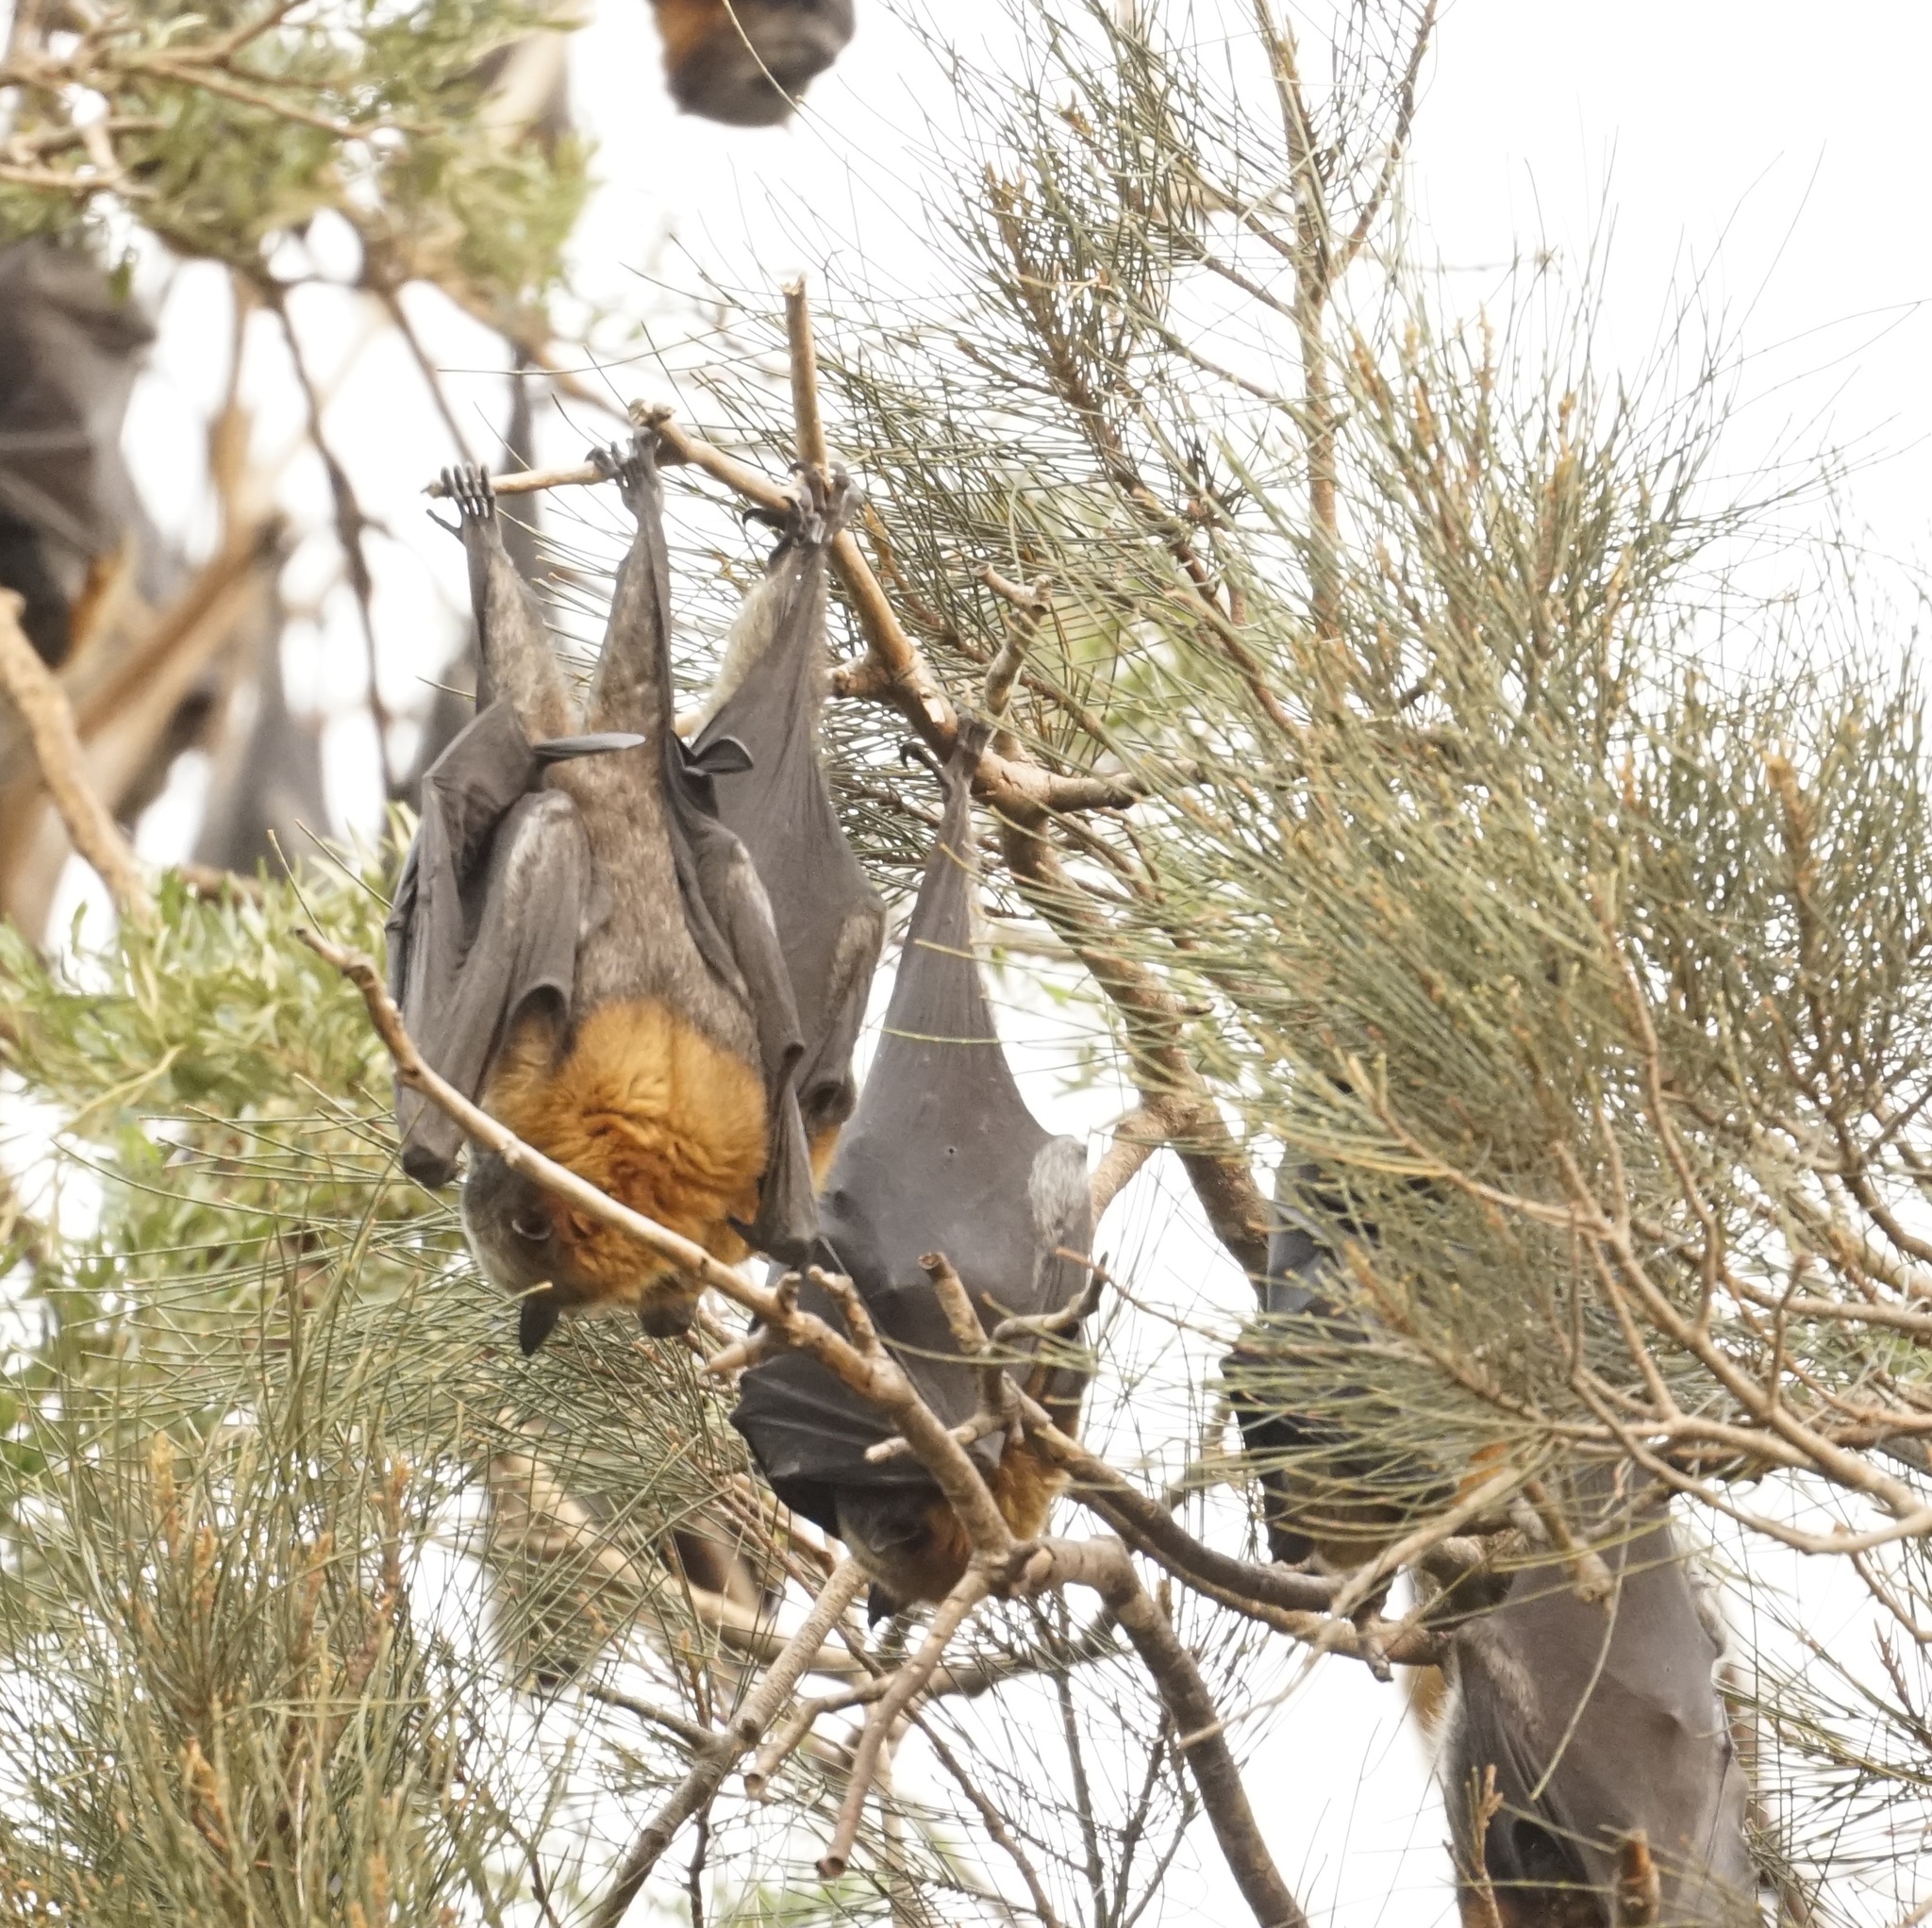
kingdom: Animalia
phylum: Chordata
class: Mammalia
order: Chiroptera
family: Pteropodidae
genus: Pteropus
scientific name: Pteropus poliocephalus
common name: Gray-headed flying fox
